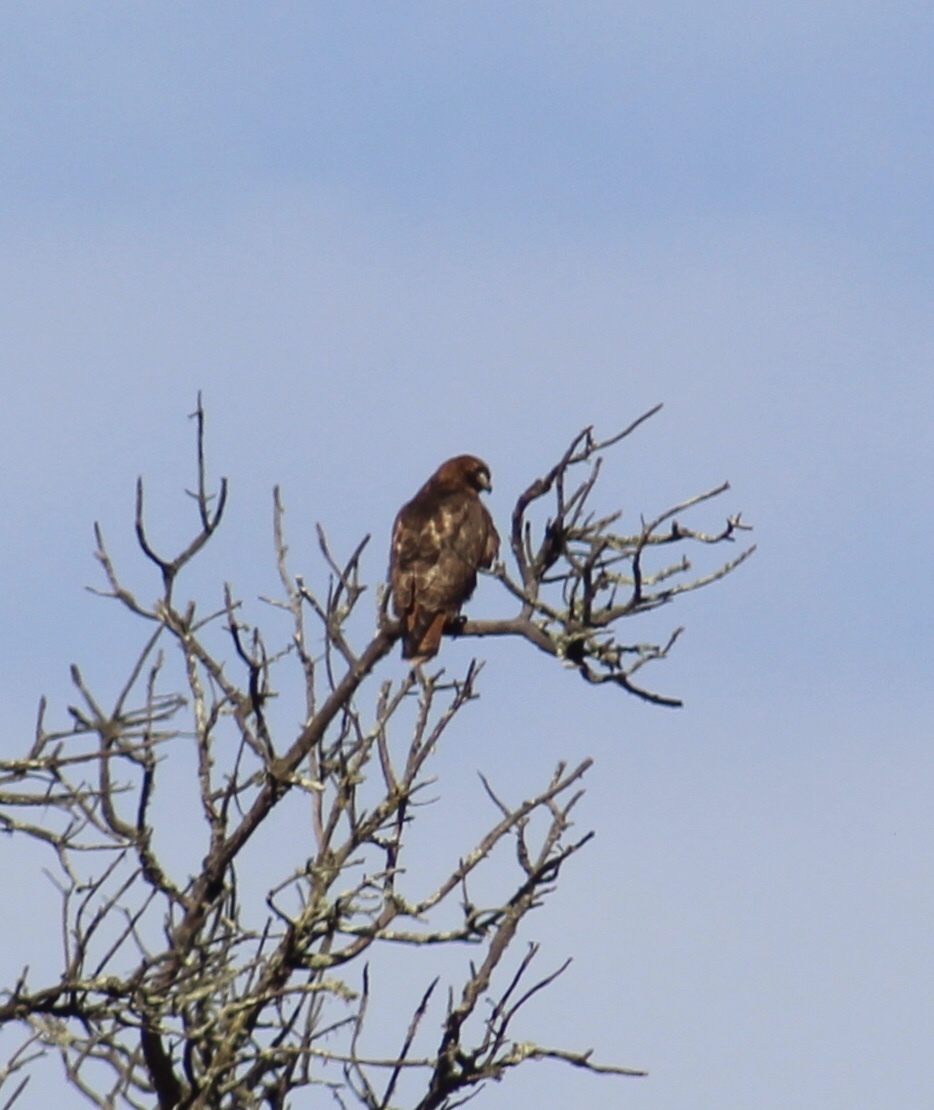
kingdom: Animalia
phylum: Chordata
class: Aves
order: Accipitriformes
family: Accipitridae
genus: Buteo
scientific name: Buteo jamaicensis
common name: Red-tailed hawk
